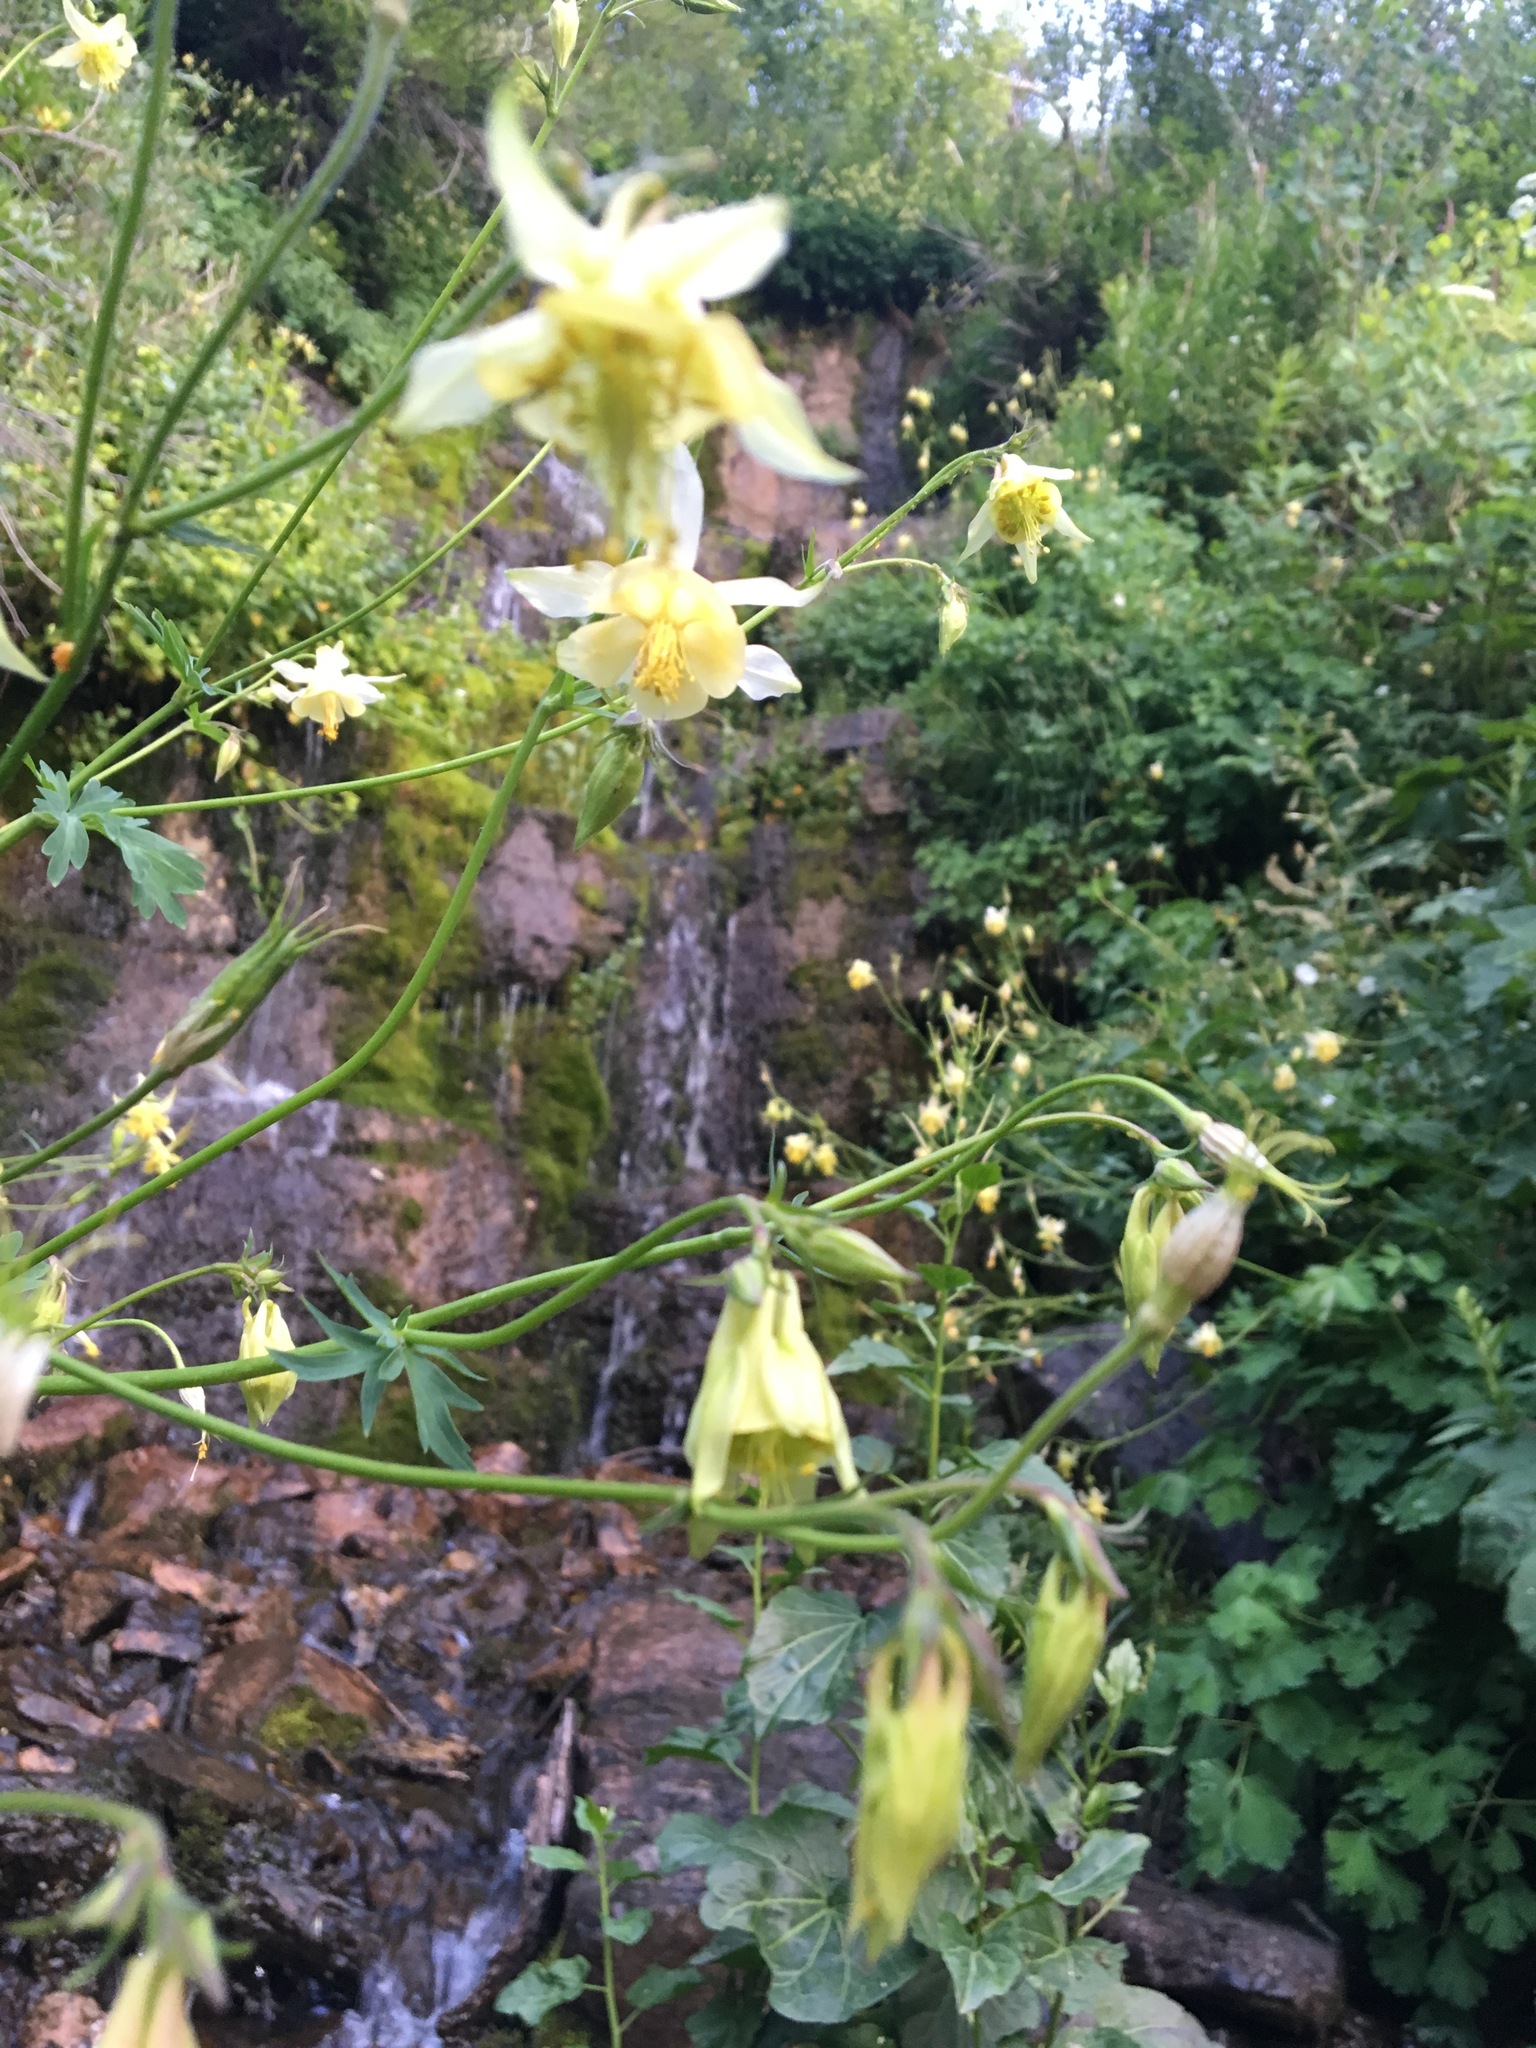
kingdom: Plantae
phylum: Tracheophyta
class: Magnoliopsida
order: Ranunculales
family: Ranunculaceae
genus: Aquilegia
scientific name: Aquilegia flavescens
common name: Yellow columbine
